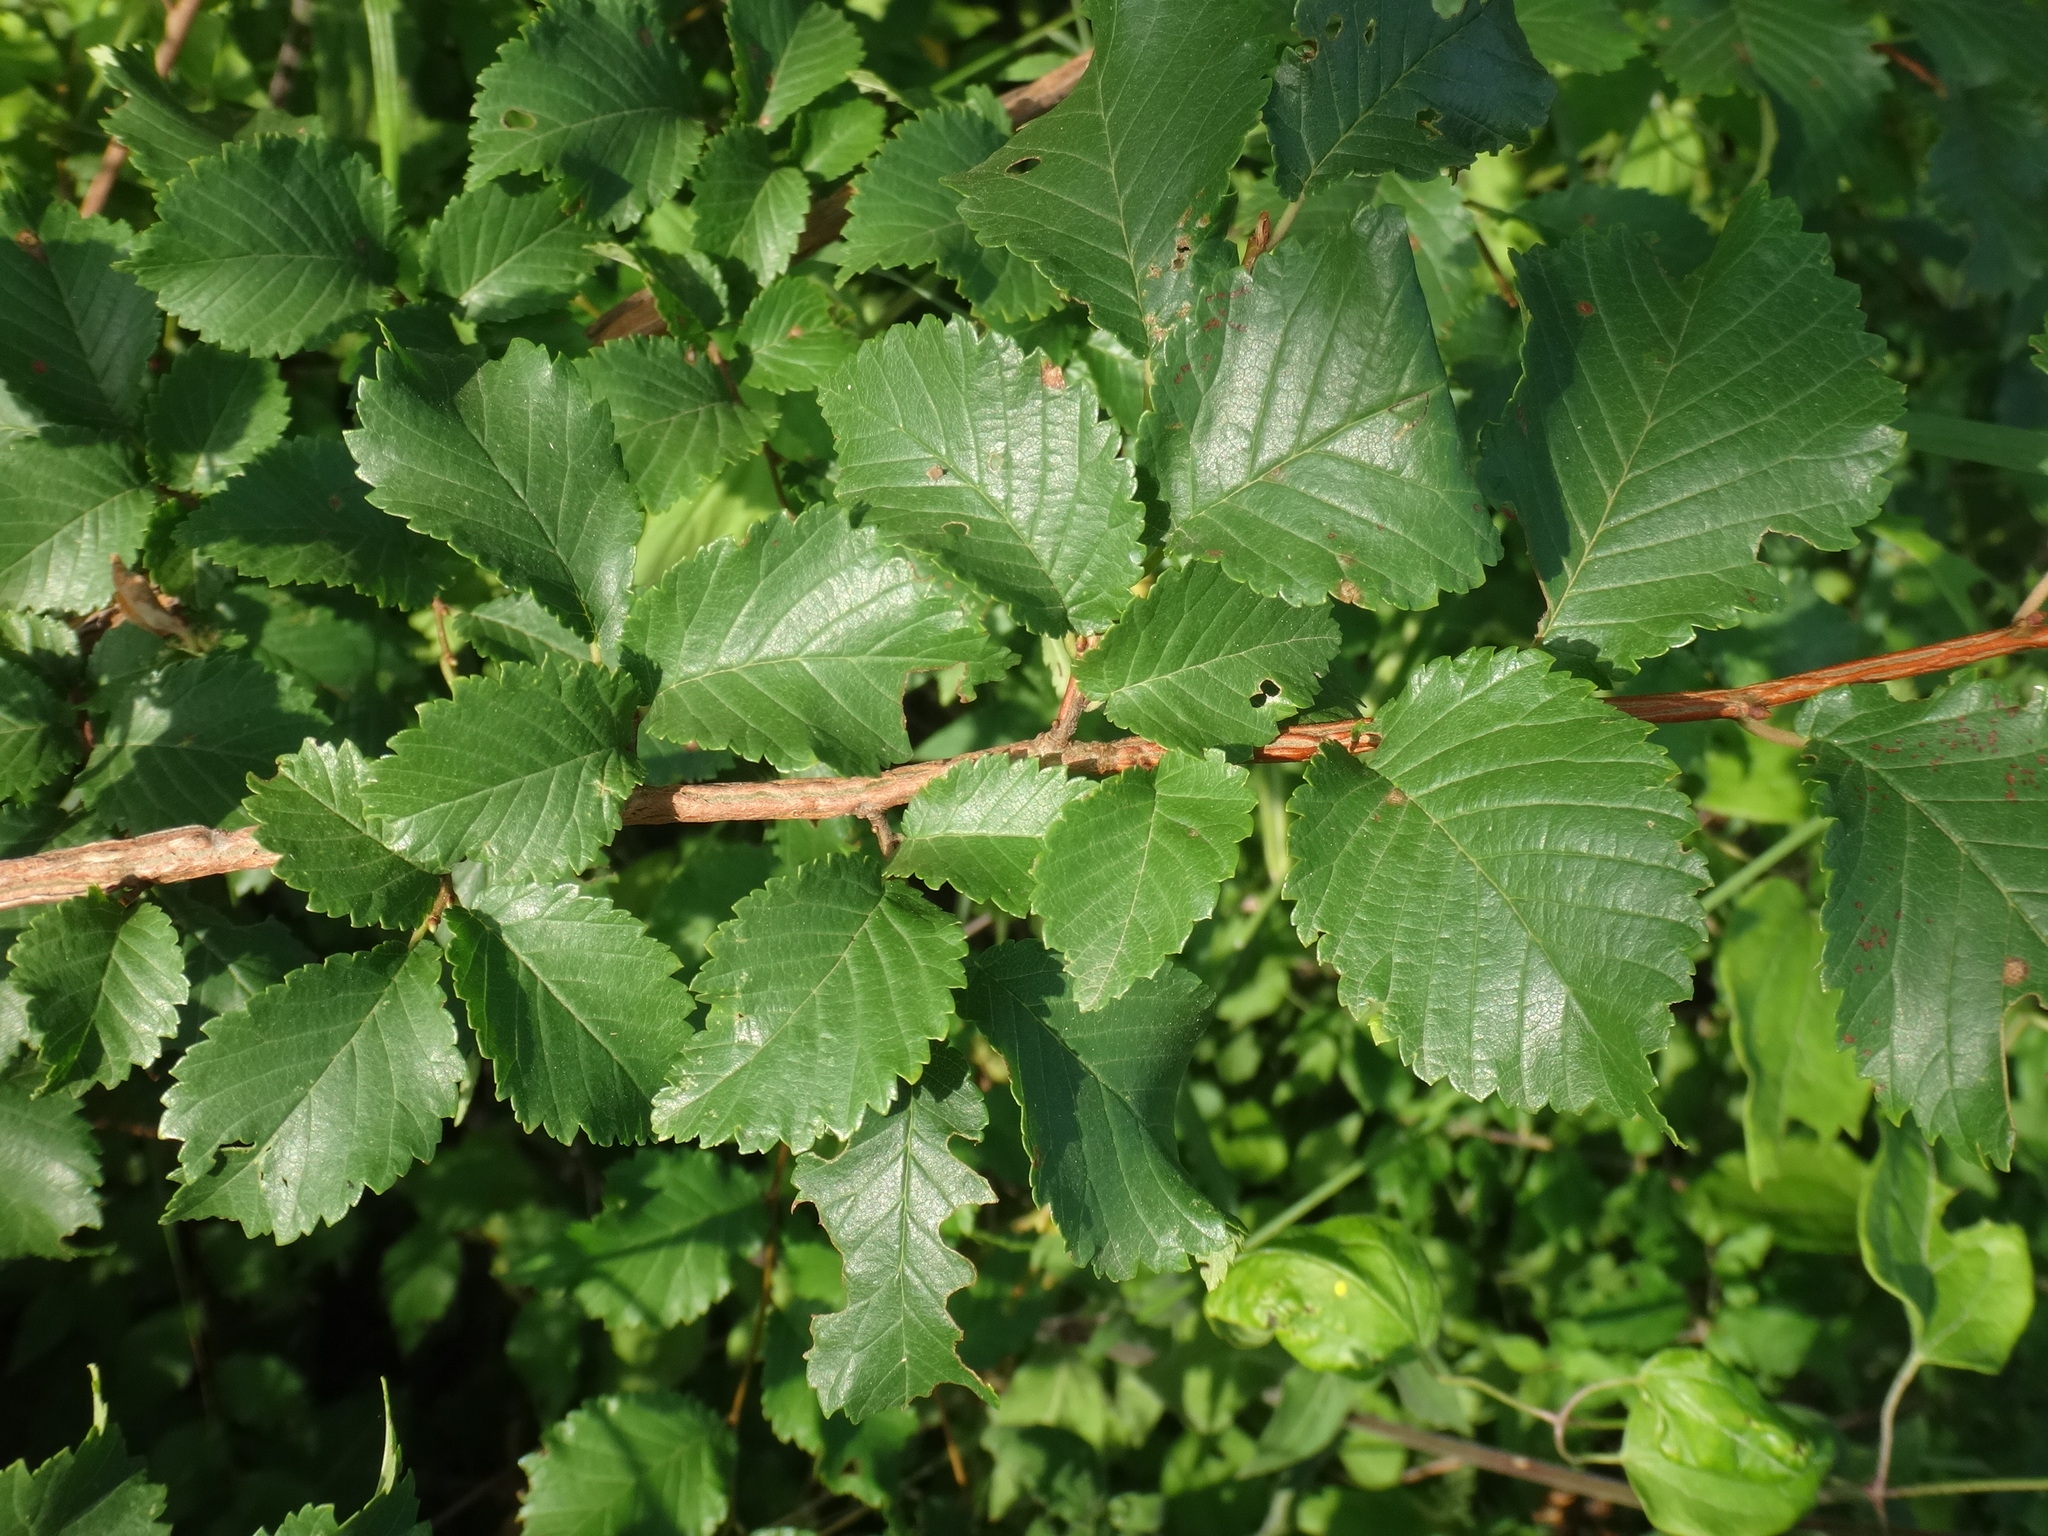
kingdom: Plantae
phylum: Tracheophyta
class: Magnoliopsida
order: Rosales
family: Ulmaceae
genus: Ulmus
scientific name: Ulmus minor
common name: Small-leaved elm
